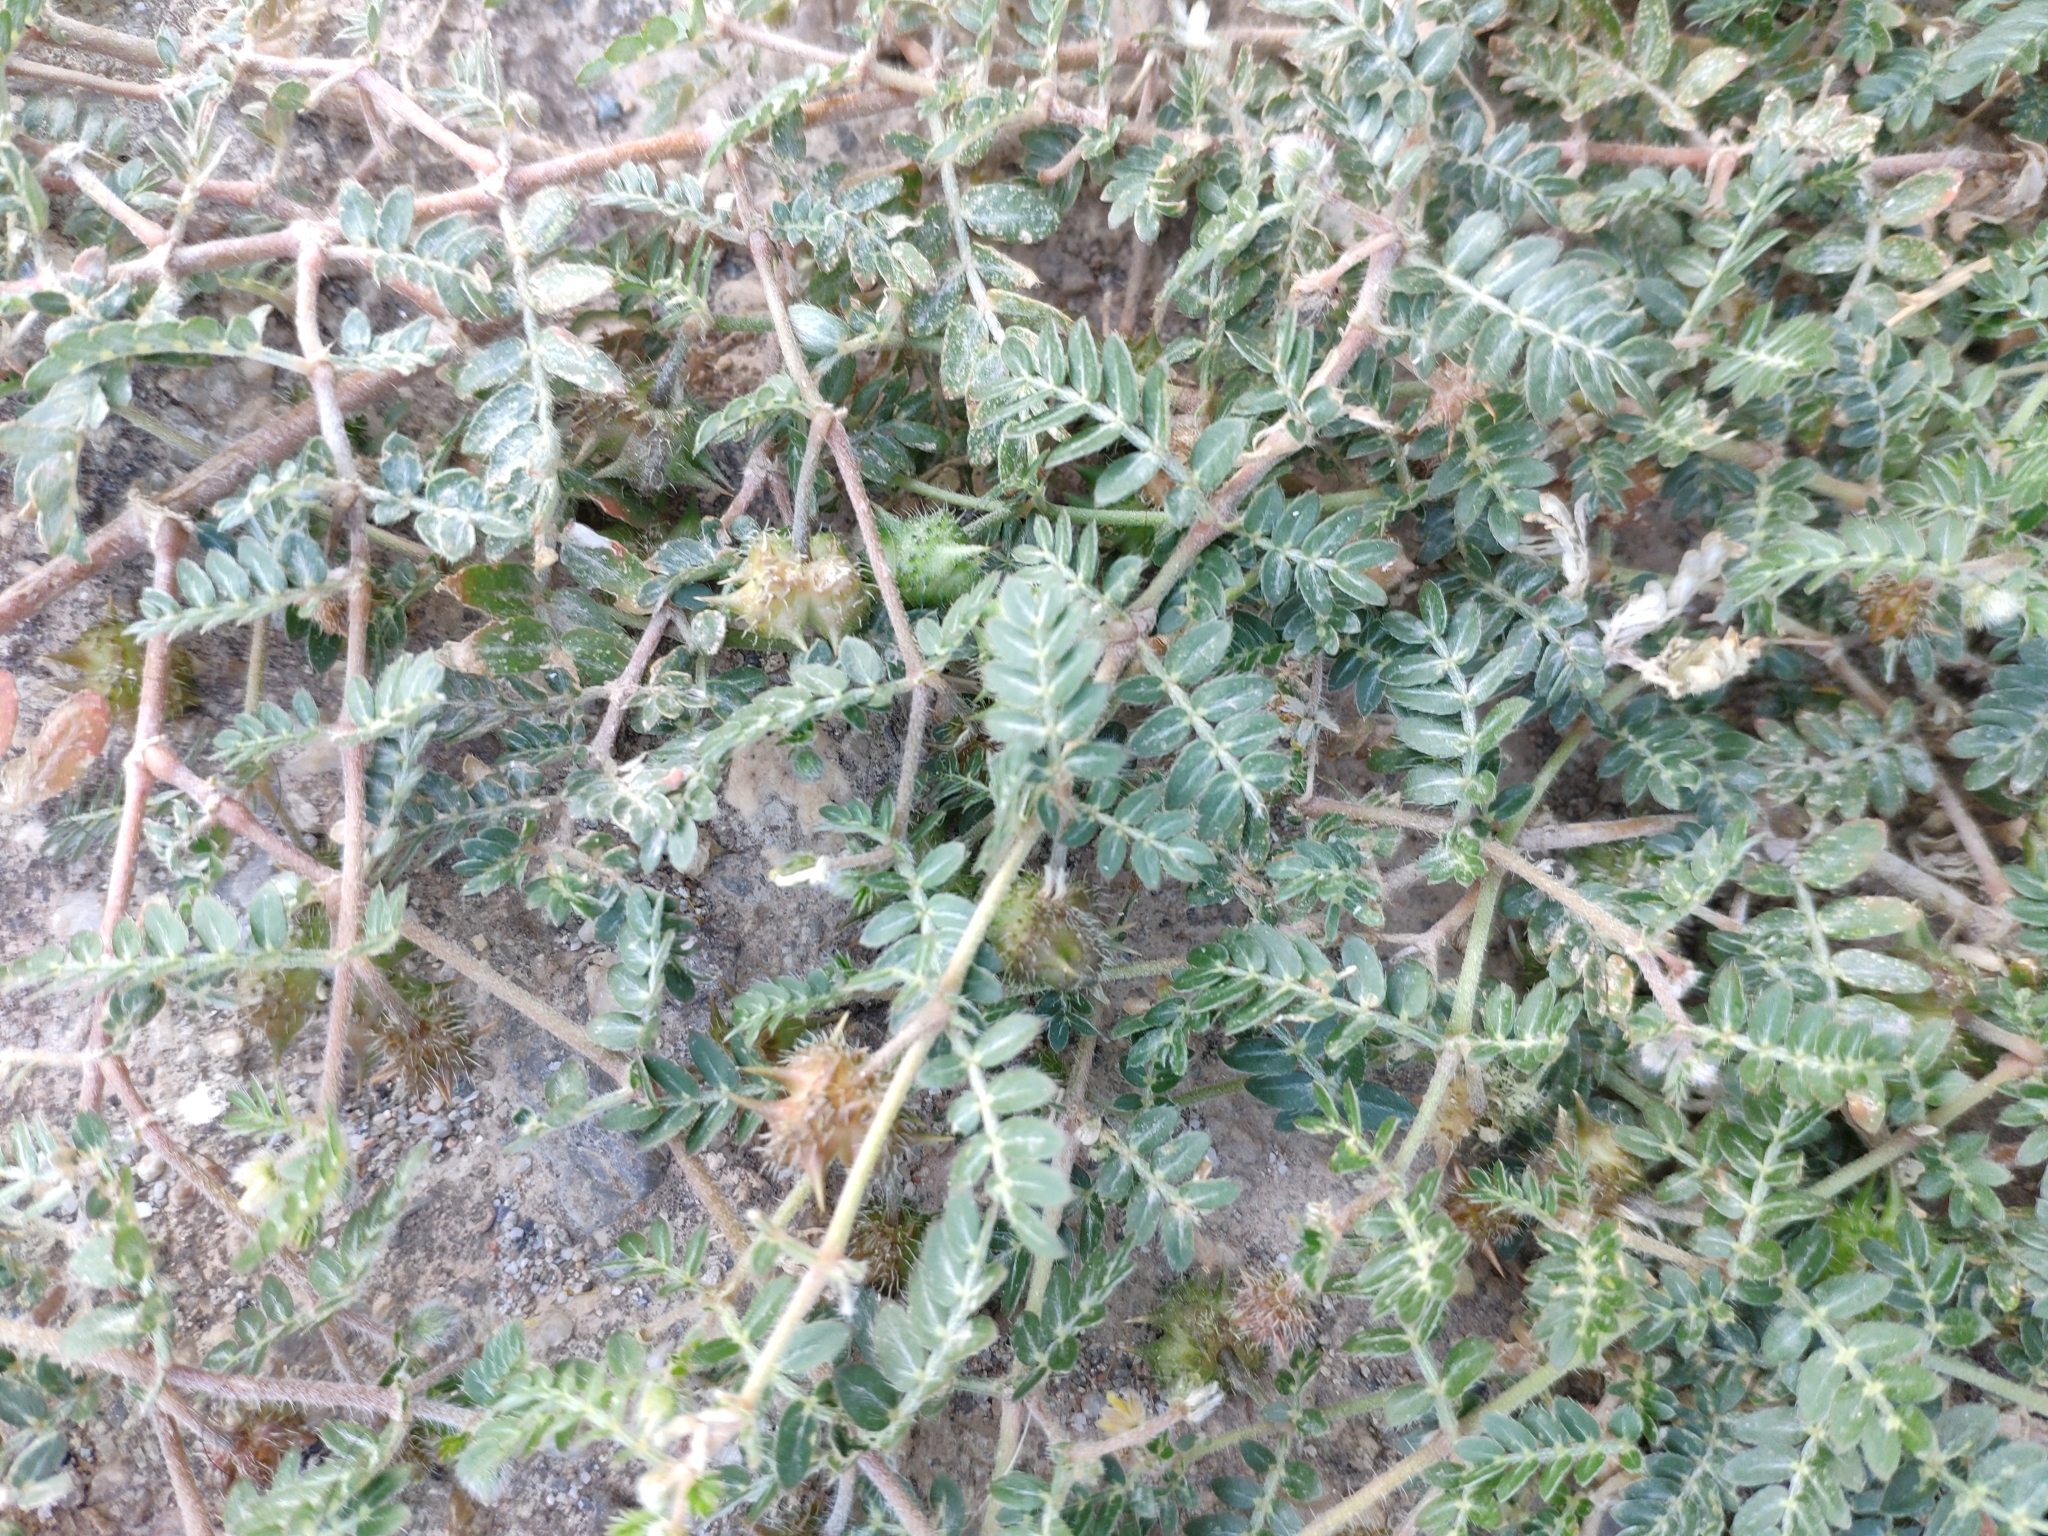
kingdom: Plantae
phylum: Tracheophyta
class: Magnoliopsida
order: Zygophyllales
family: Zygophyllaceae
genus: Tribulus
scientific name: Tribulus terrestris
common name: Puncturevine
